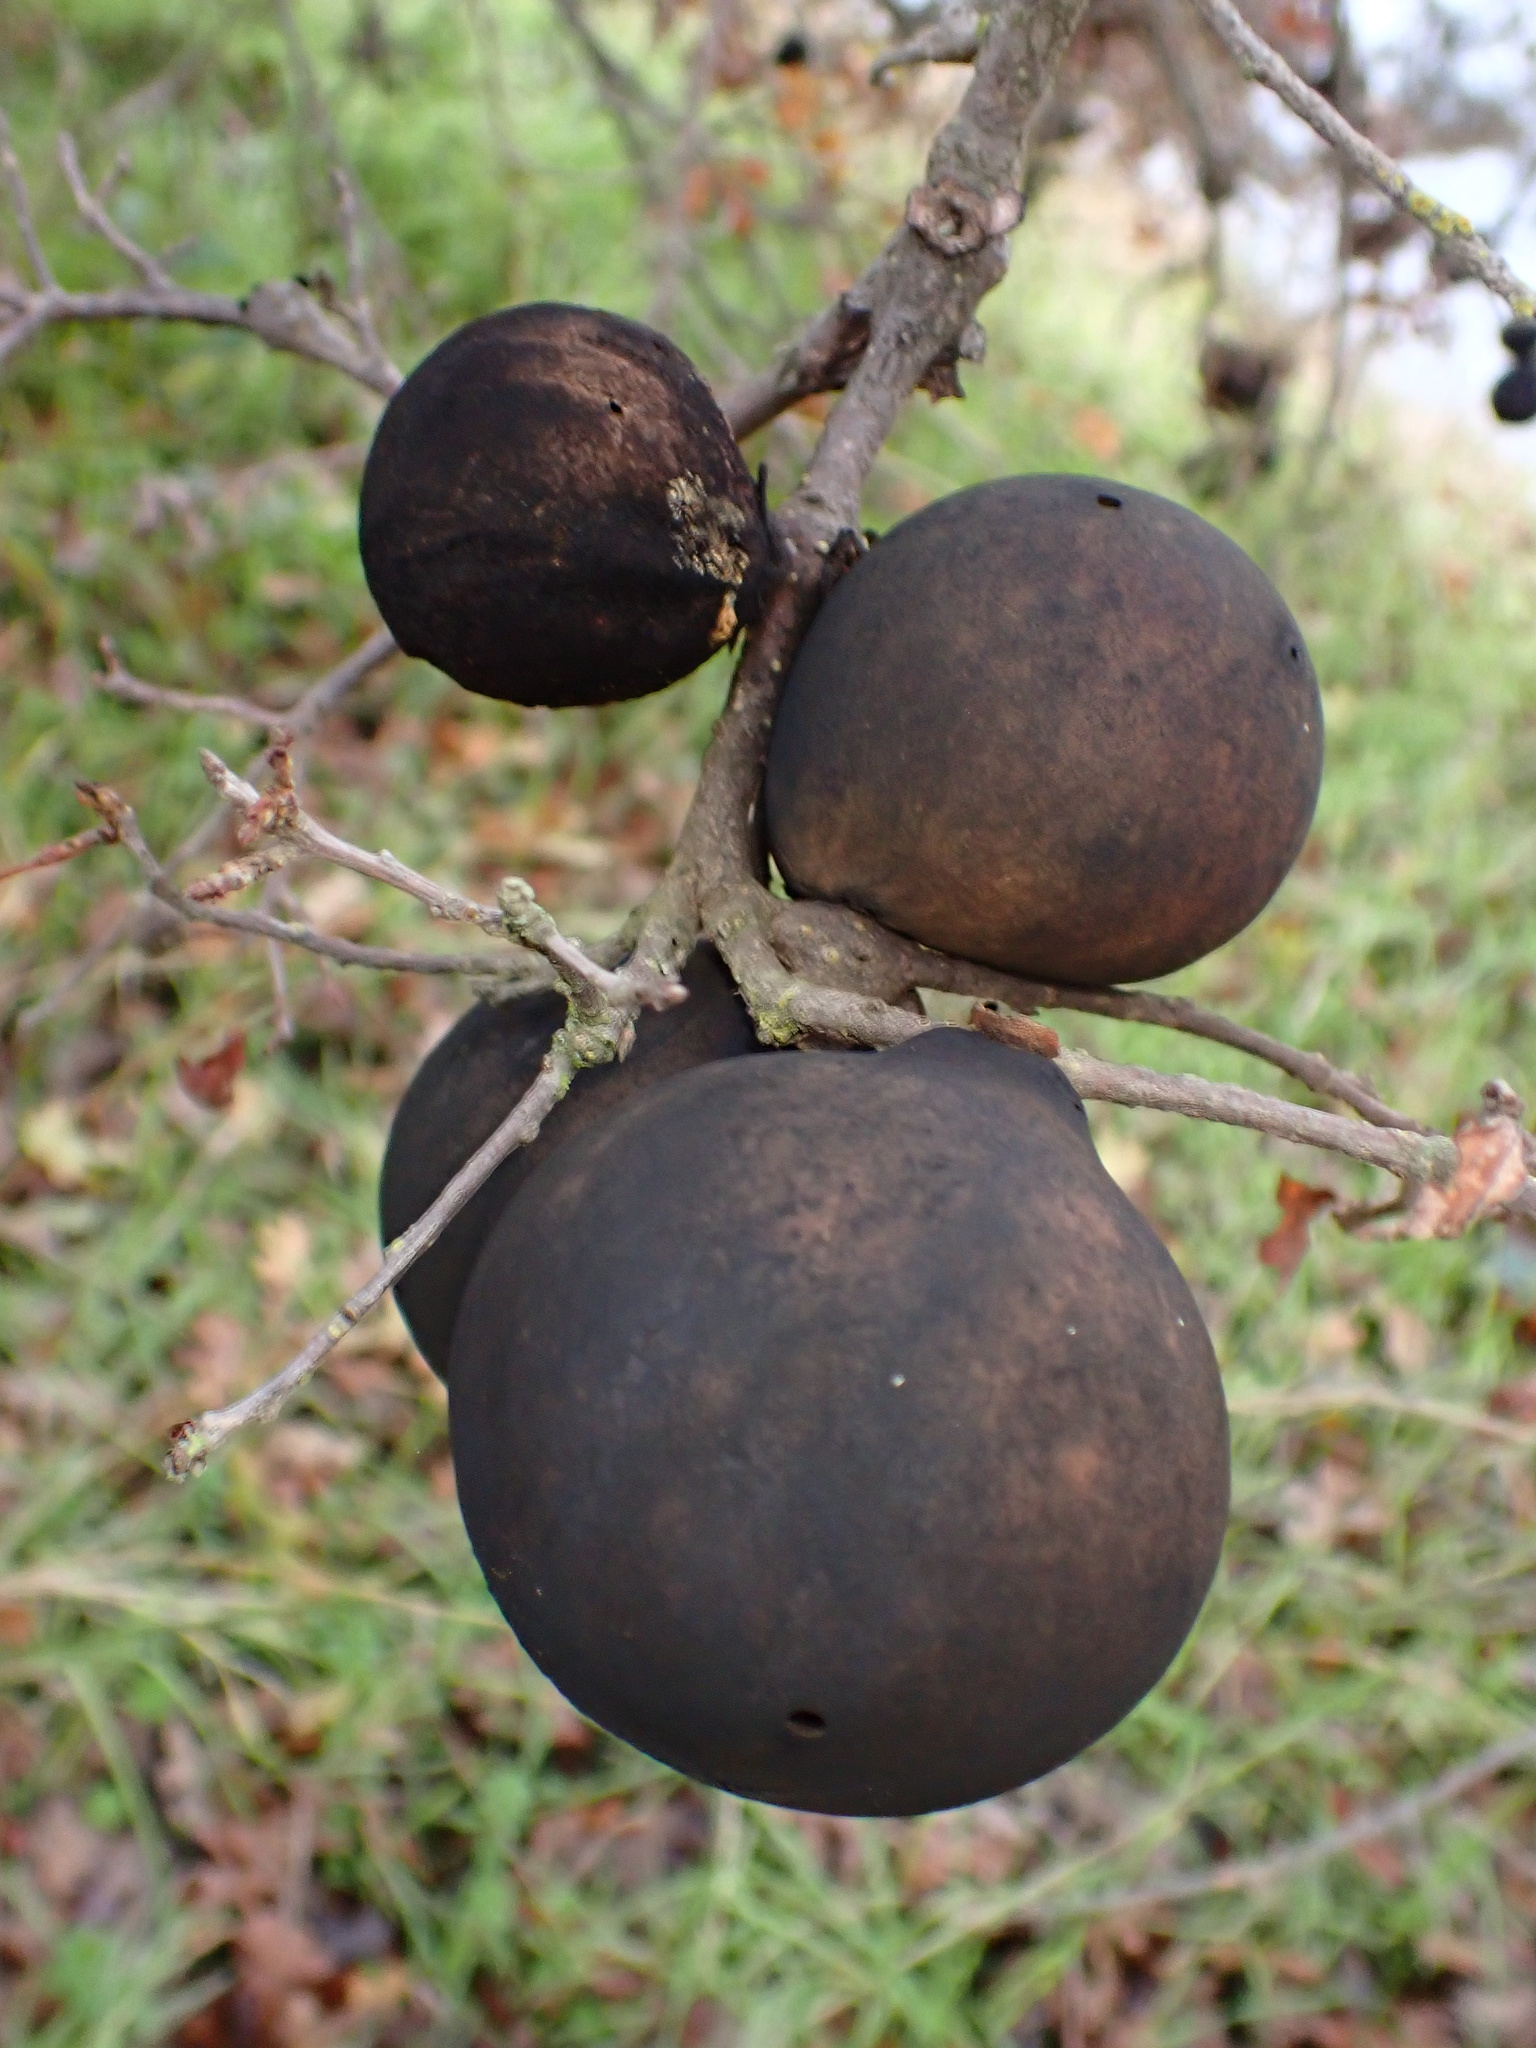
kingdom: Animalia
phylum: Arthropoda
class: Insecta
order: Hymenoptera
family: Cynipidae
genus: Andricus
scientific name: Andricus quercuscalifornicus
